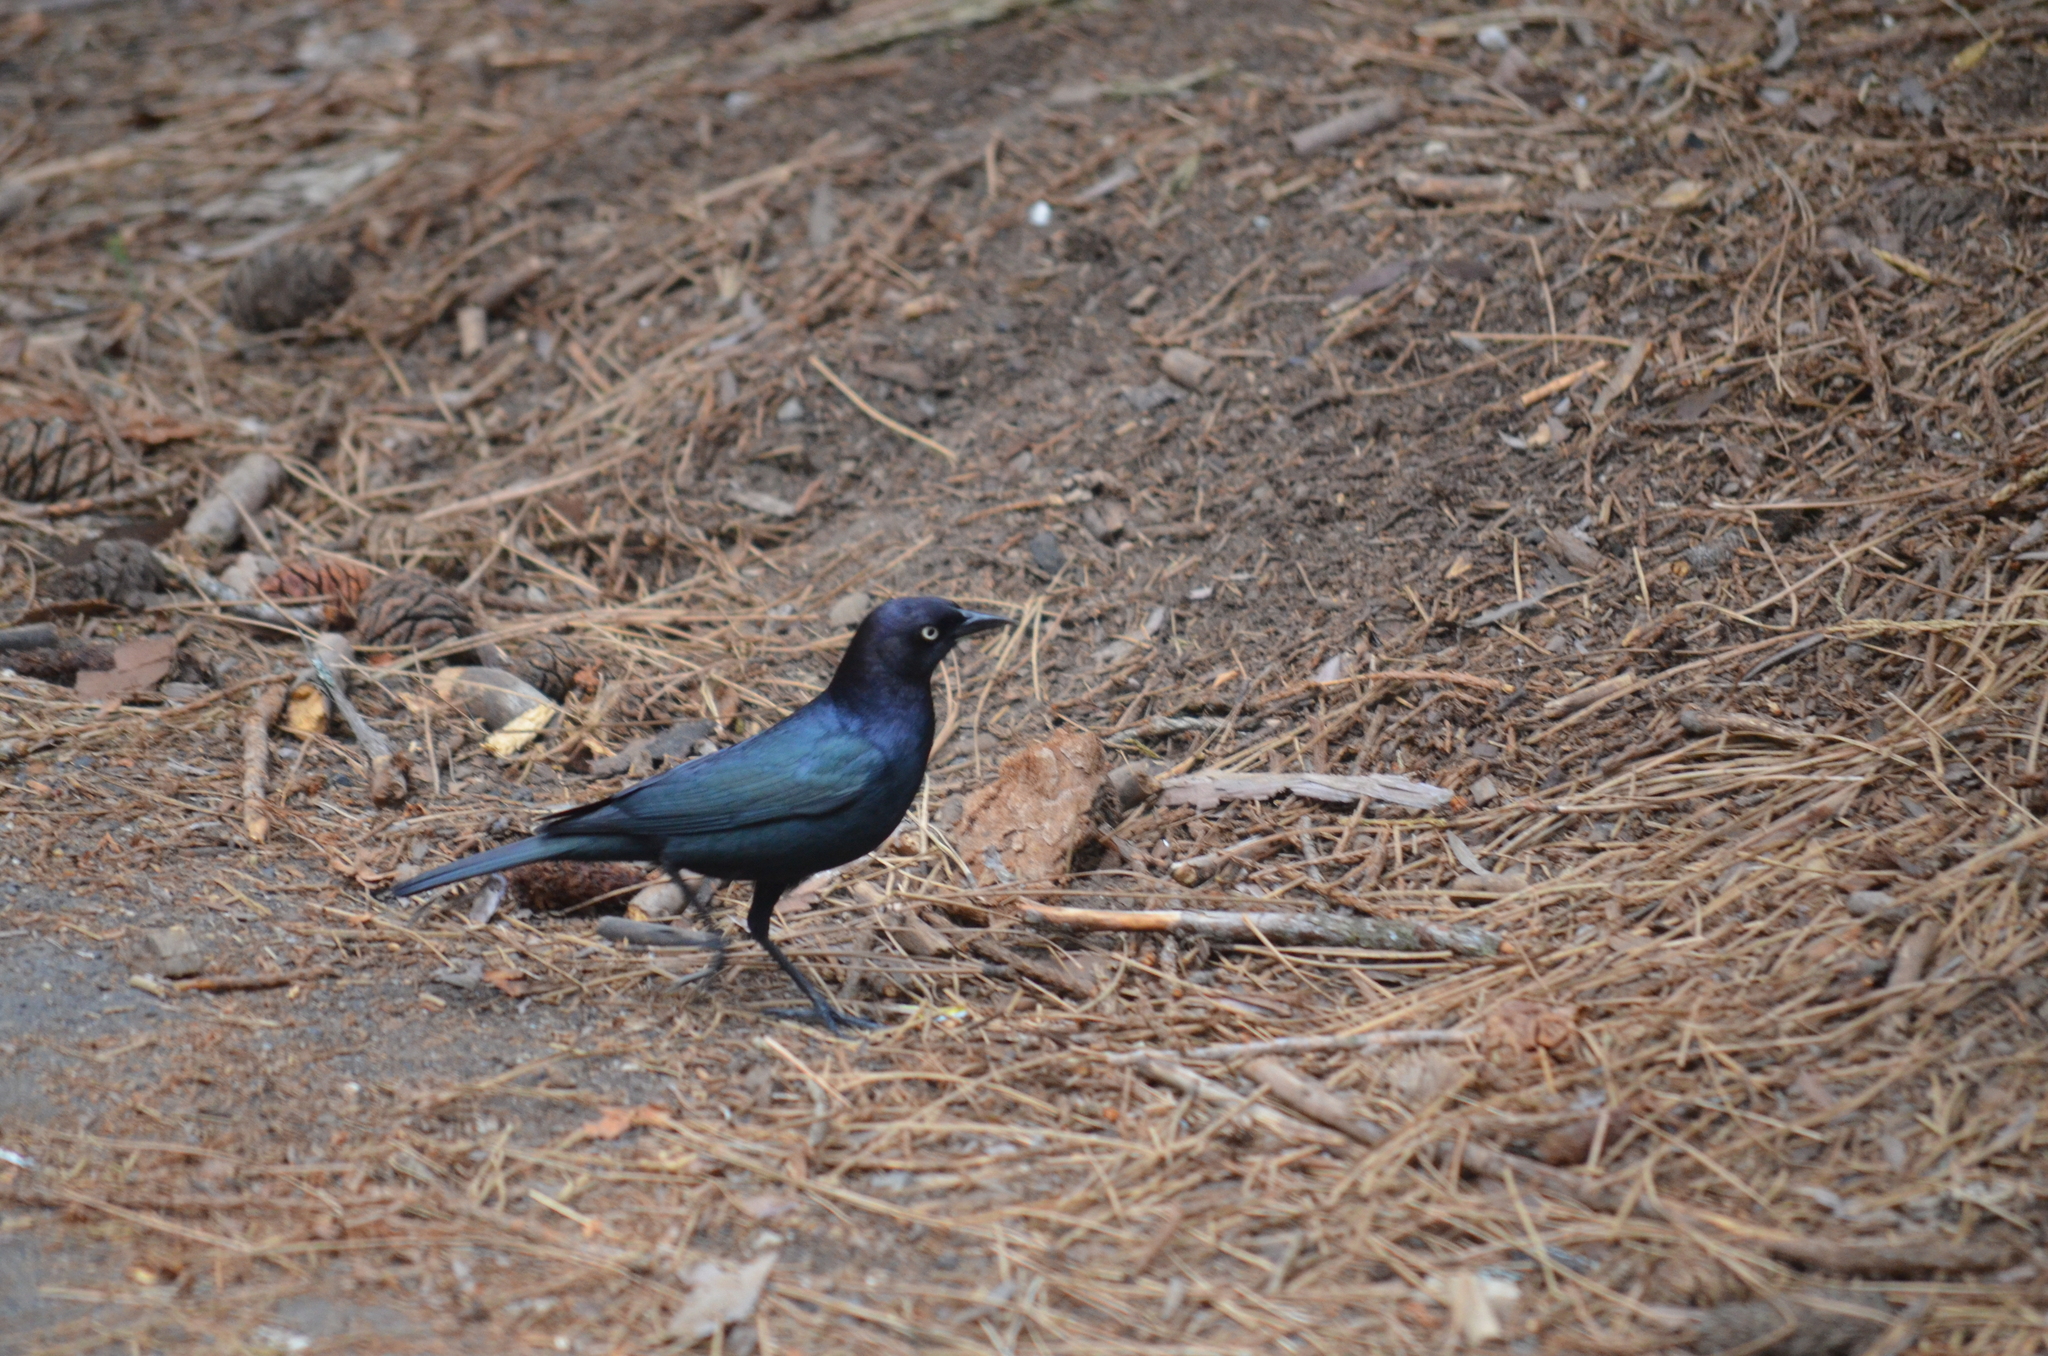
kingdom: Animalia
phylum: Chordata
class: Aves
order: Passeriformes
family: Icteridae
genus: Euphagus
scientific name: Euphagus cyanocephalus
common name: Brewer's blackbird
